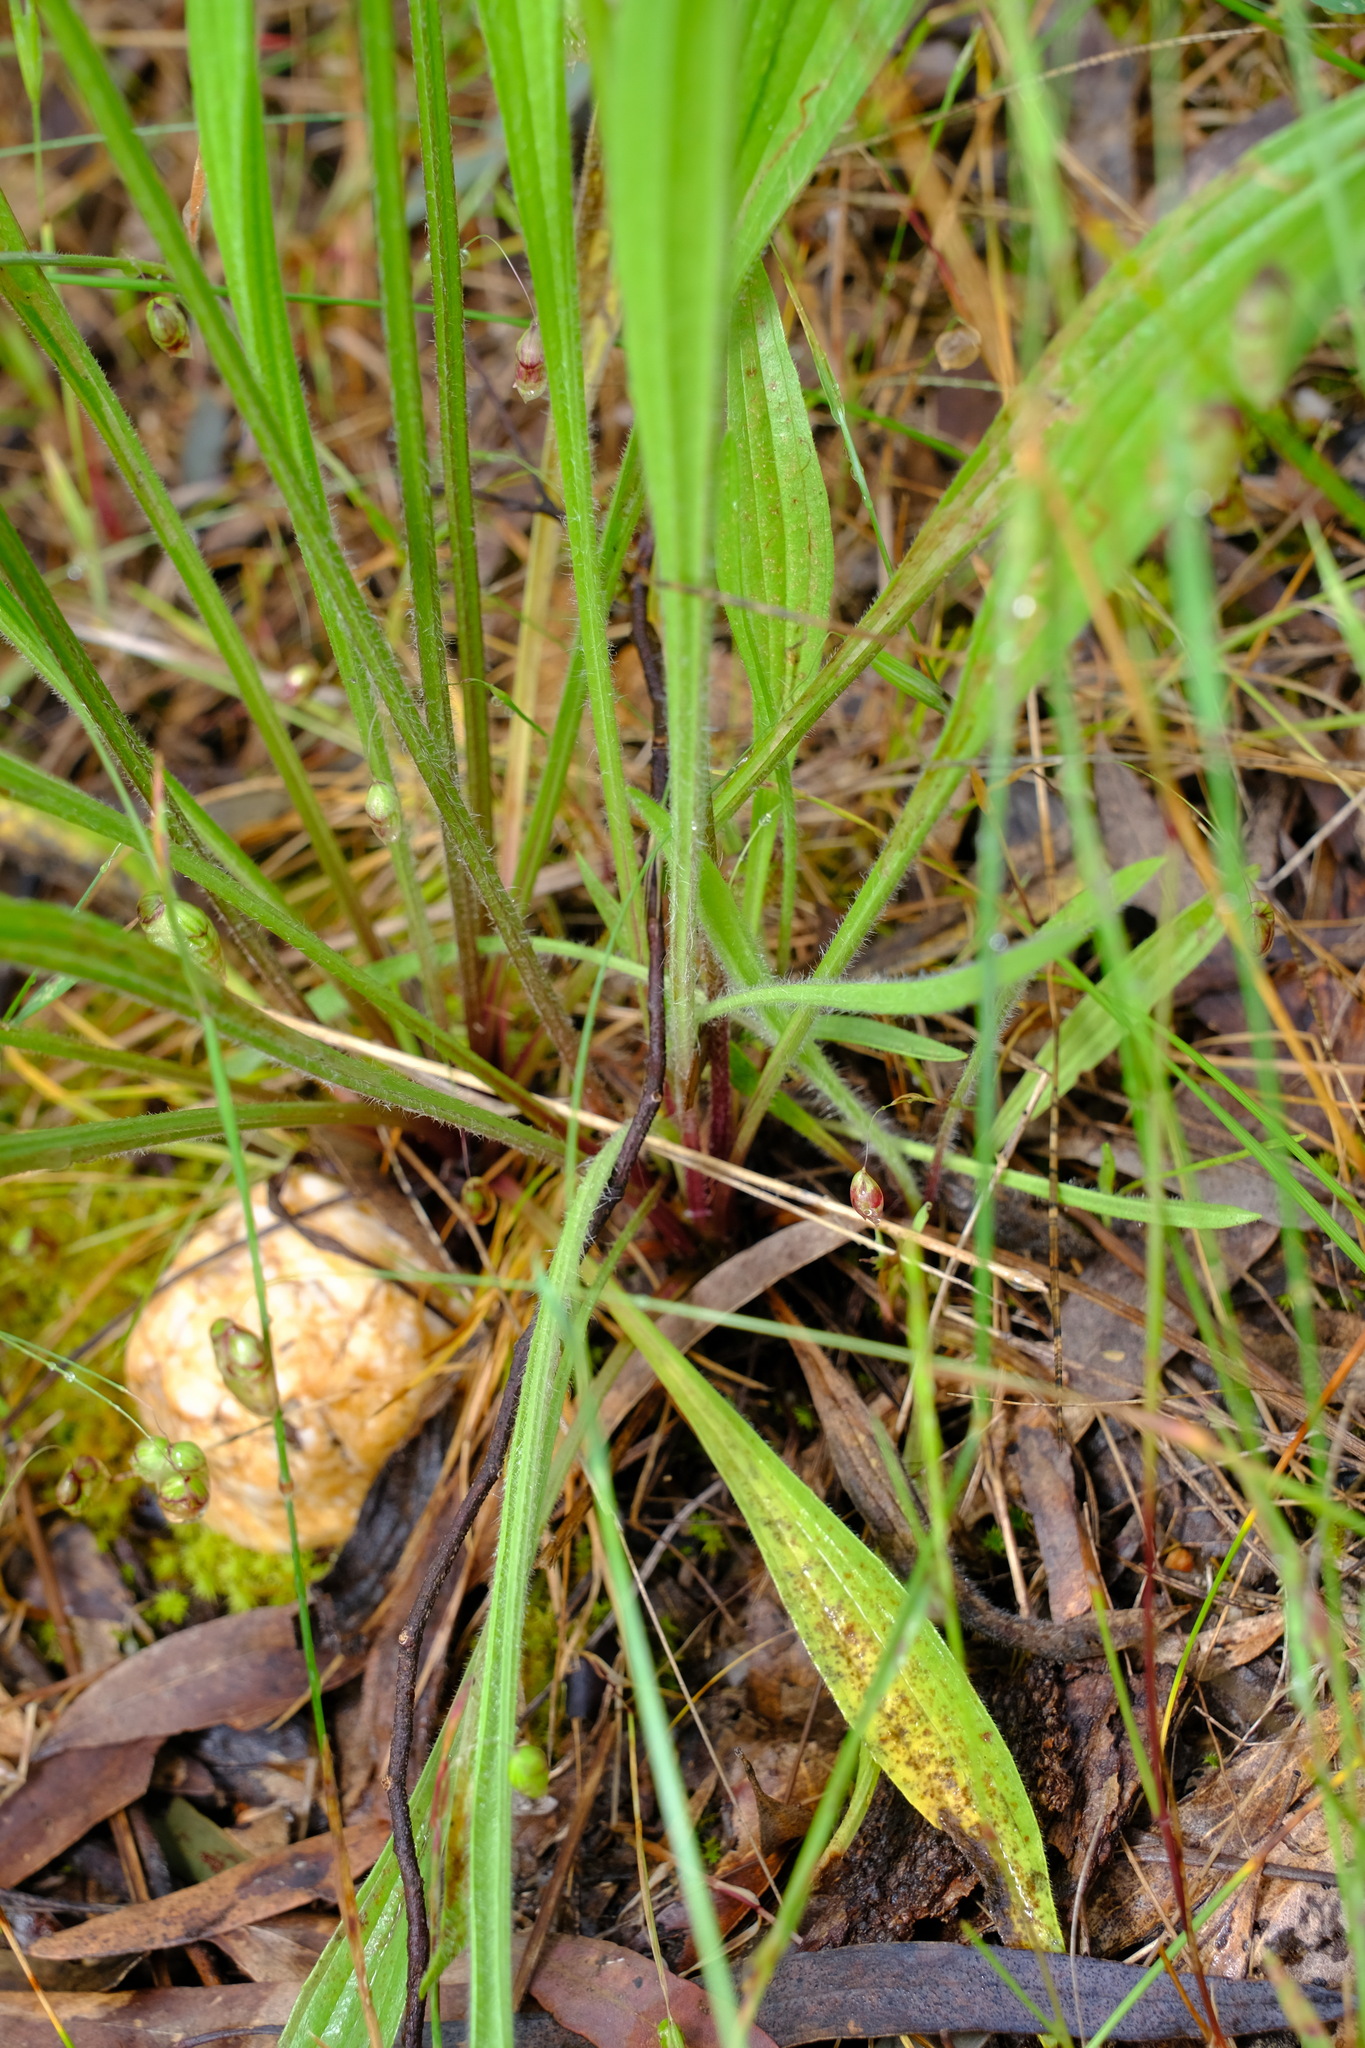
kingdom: Plantae
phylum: Tracheophyta
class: Magnoliopsida
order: Lamiales
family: Plantaginaceae
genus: Plantago
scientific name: Plantago lanceolata
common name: Ribwort plantain
